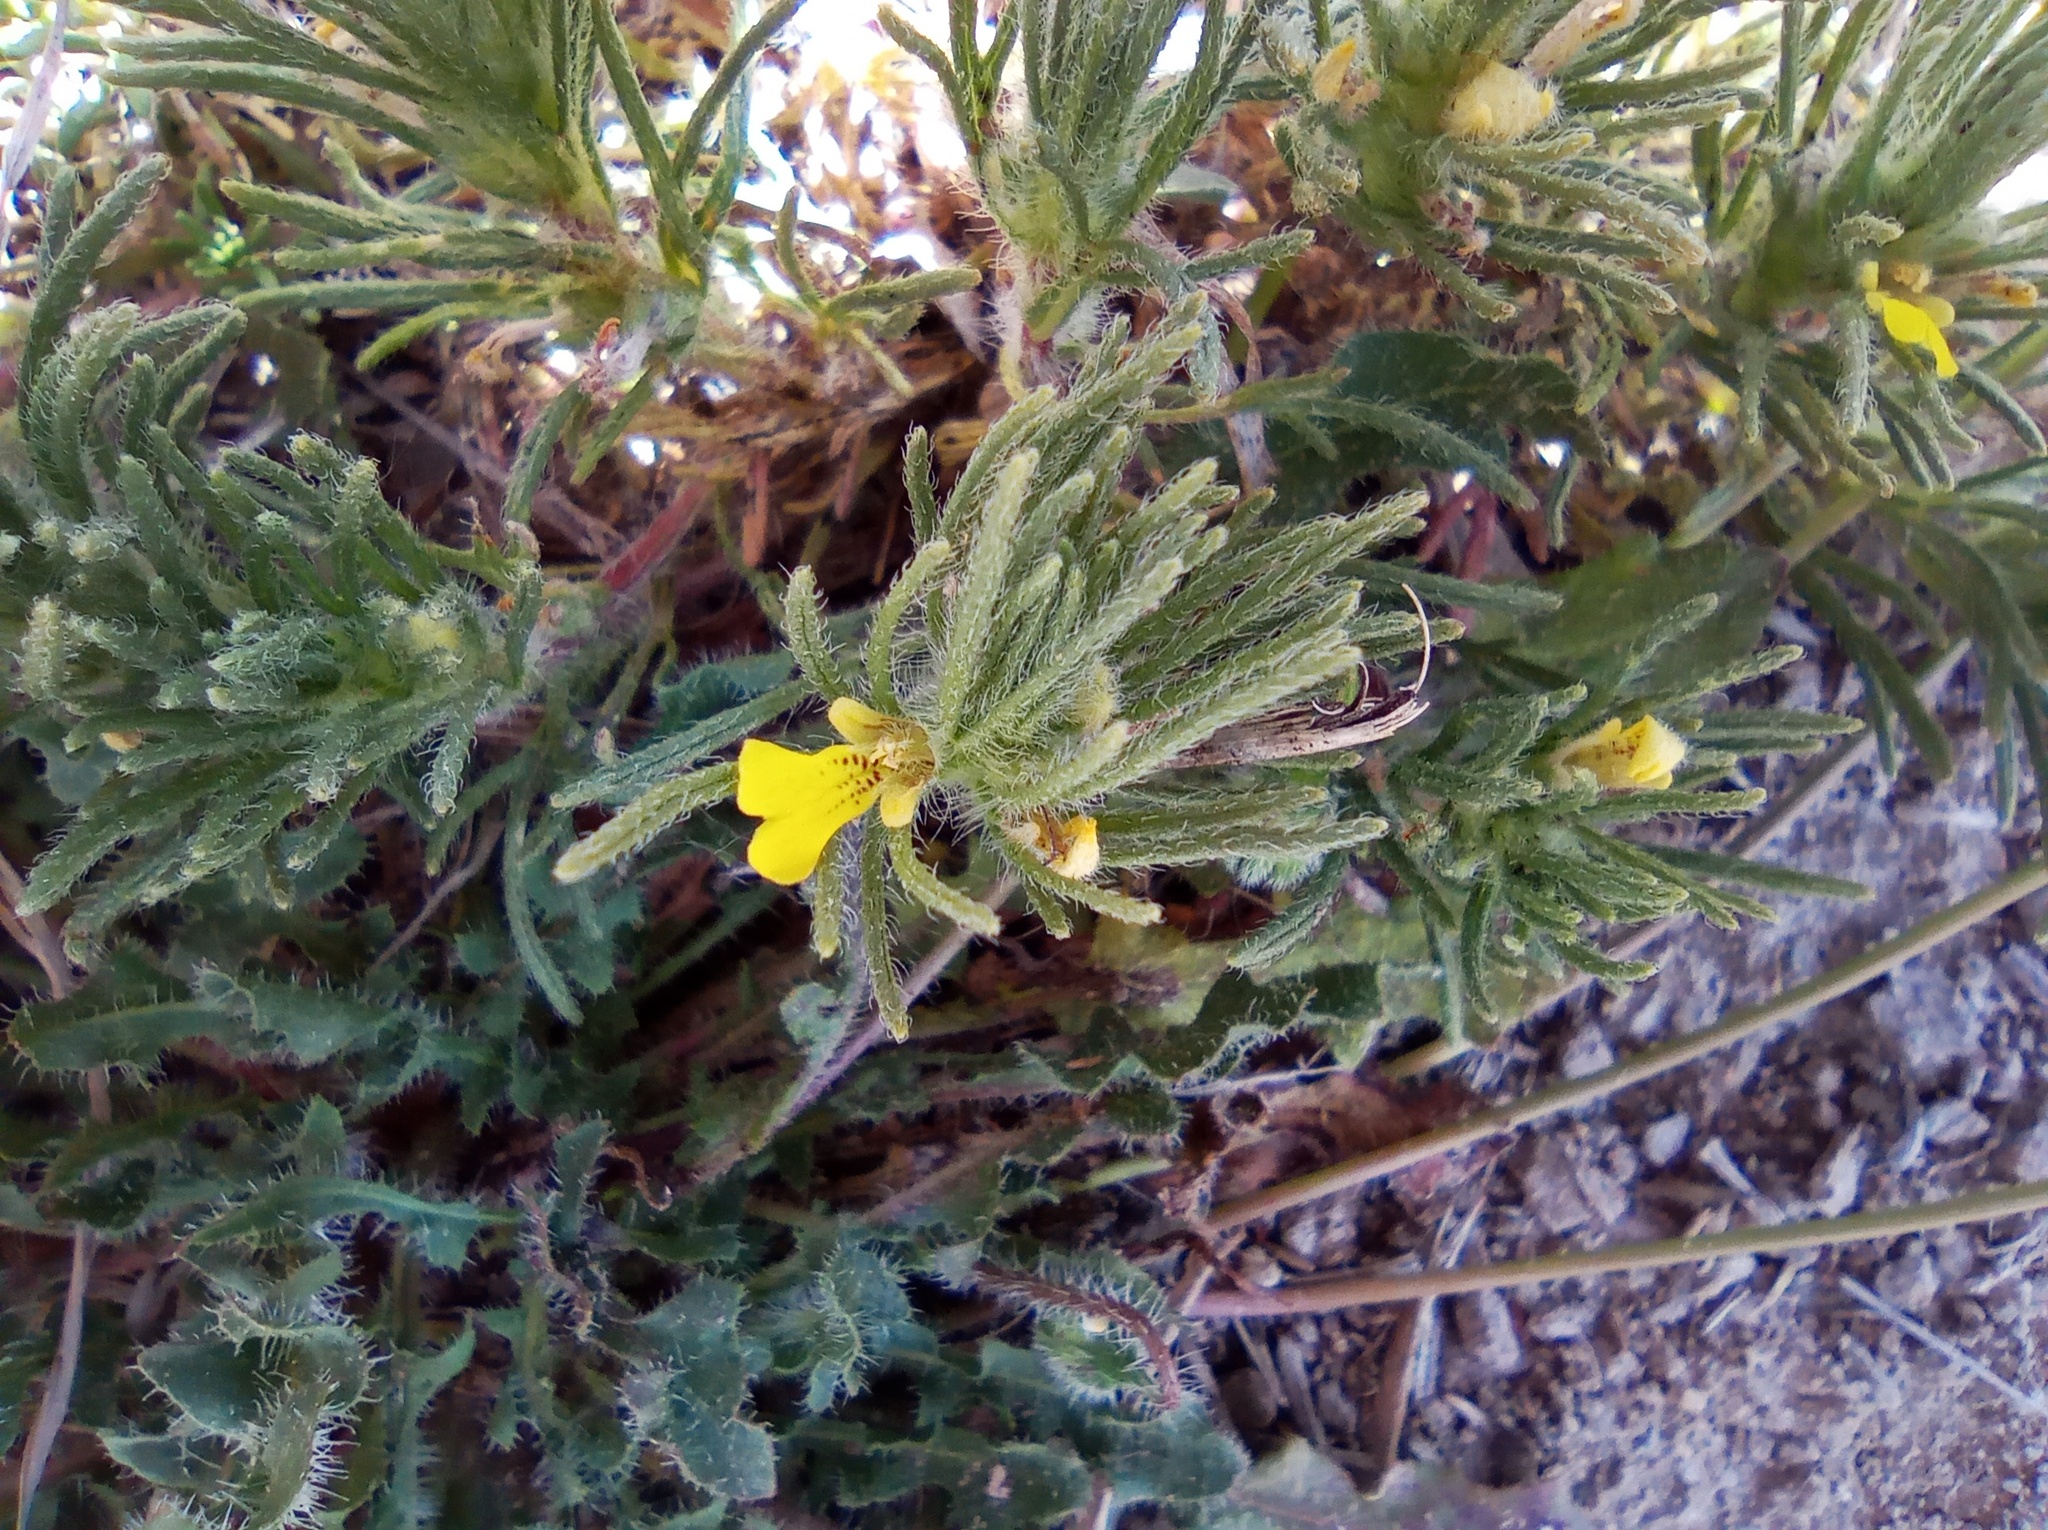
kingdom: Plantae
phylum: Tracheophyta
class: Magnoliopsida
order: Lamiales
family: Lamiaceae
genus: Ajuga
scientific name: Ajuga chamaepitys
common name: Ground-pine
